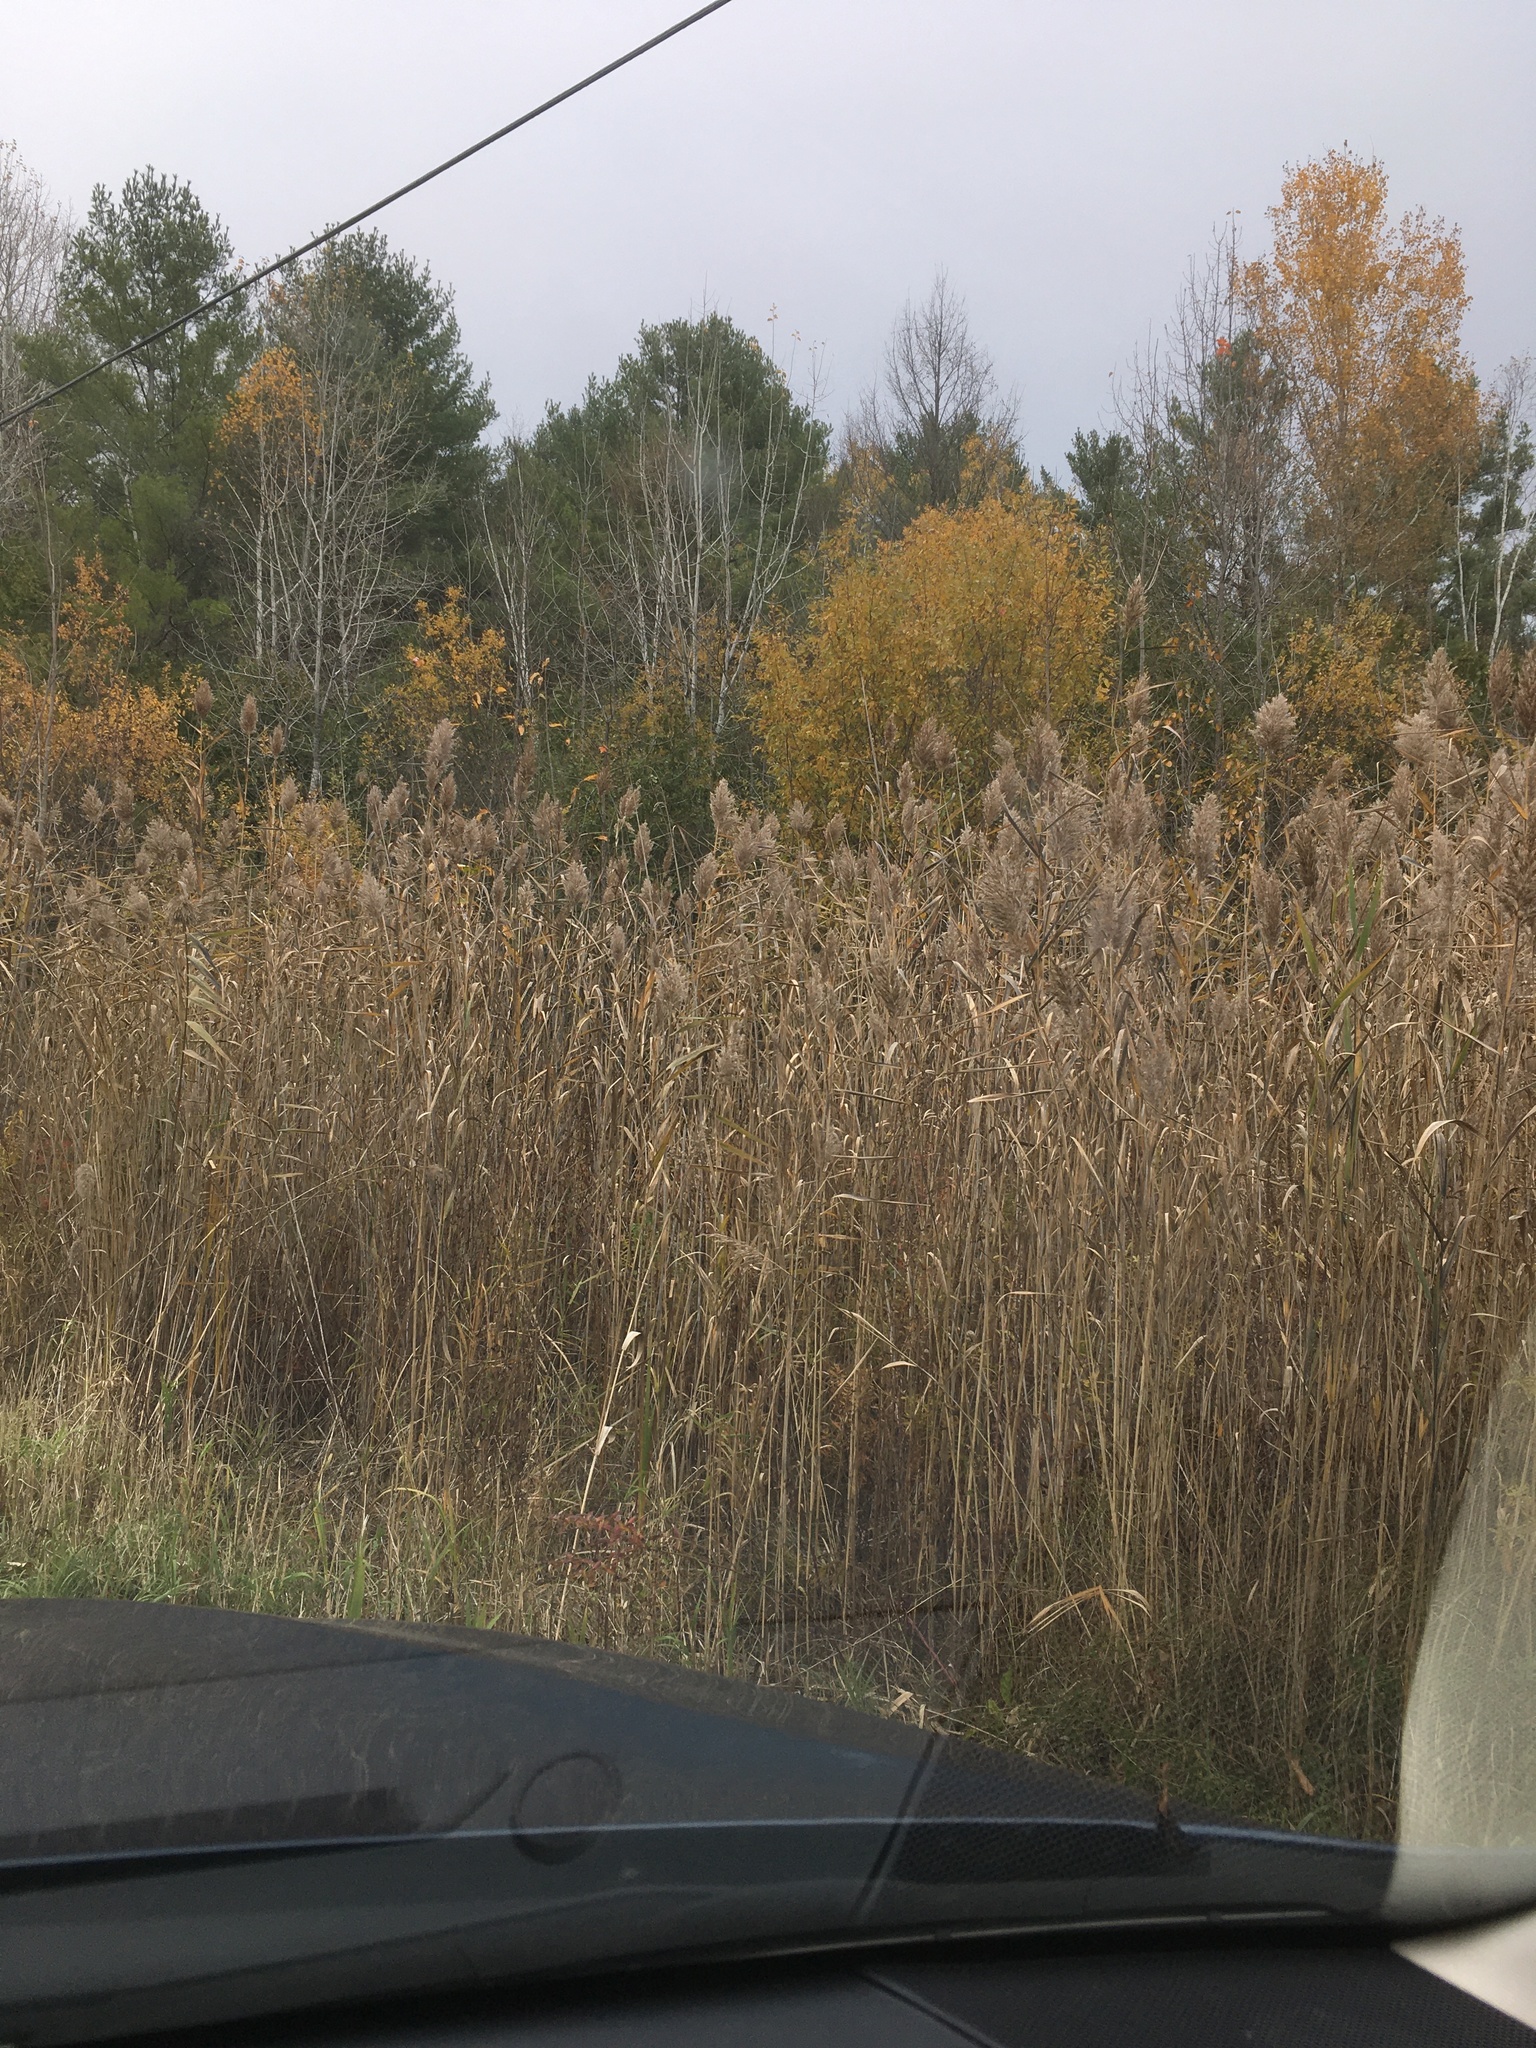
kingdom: Plantae
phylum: Tracheophyta
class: Liliopsida
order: Poales
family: Poaceae
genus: Phragmites
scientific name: Phragmites australis
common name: Common reed
